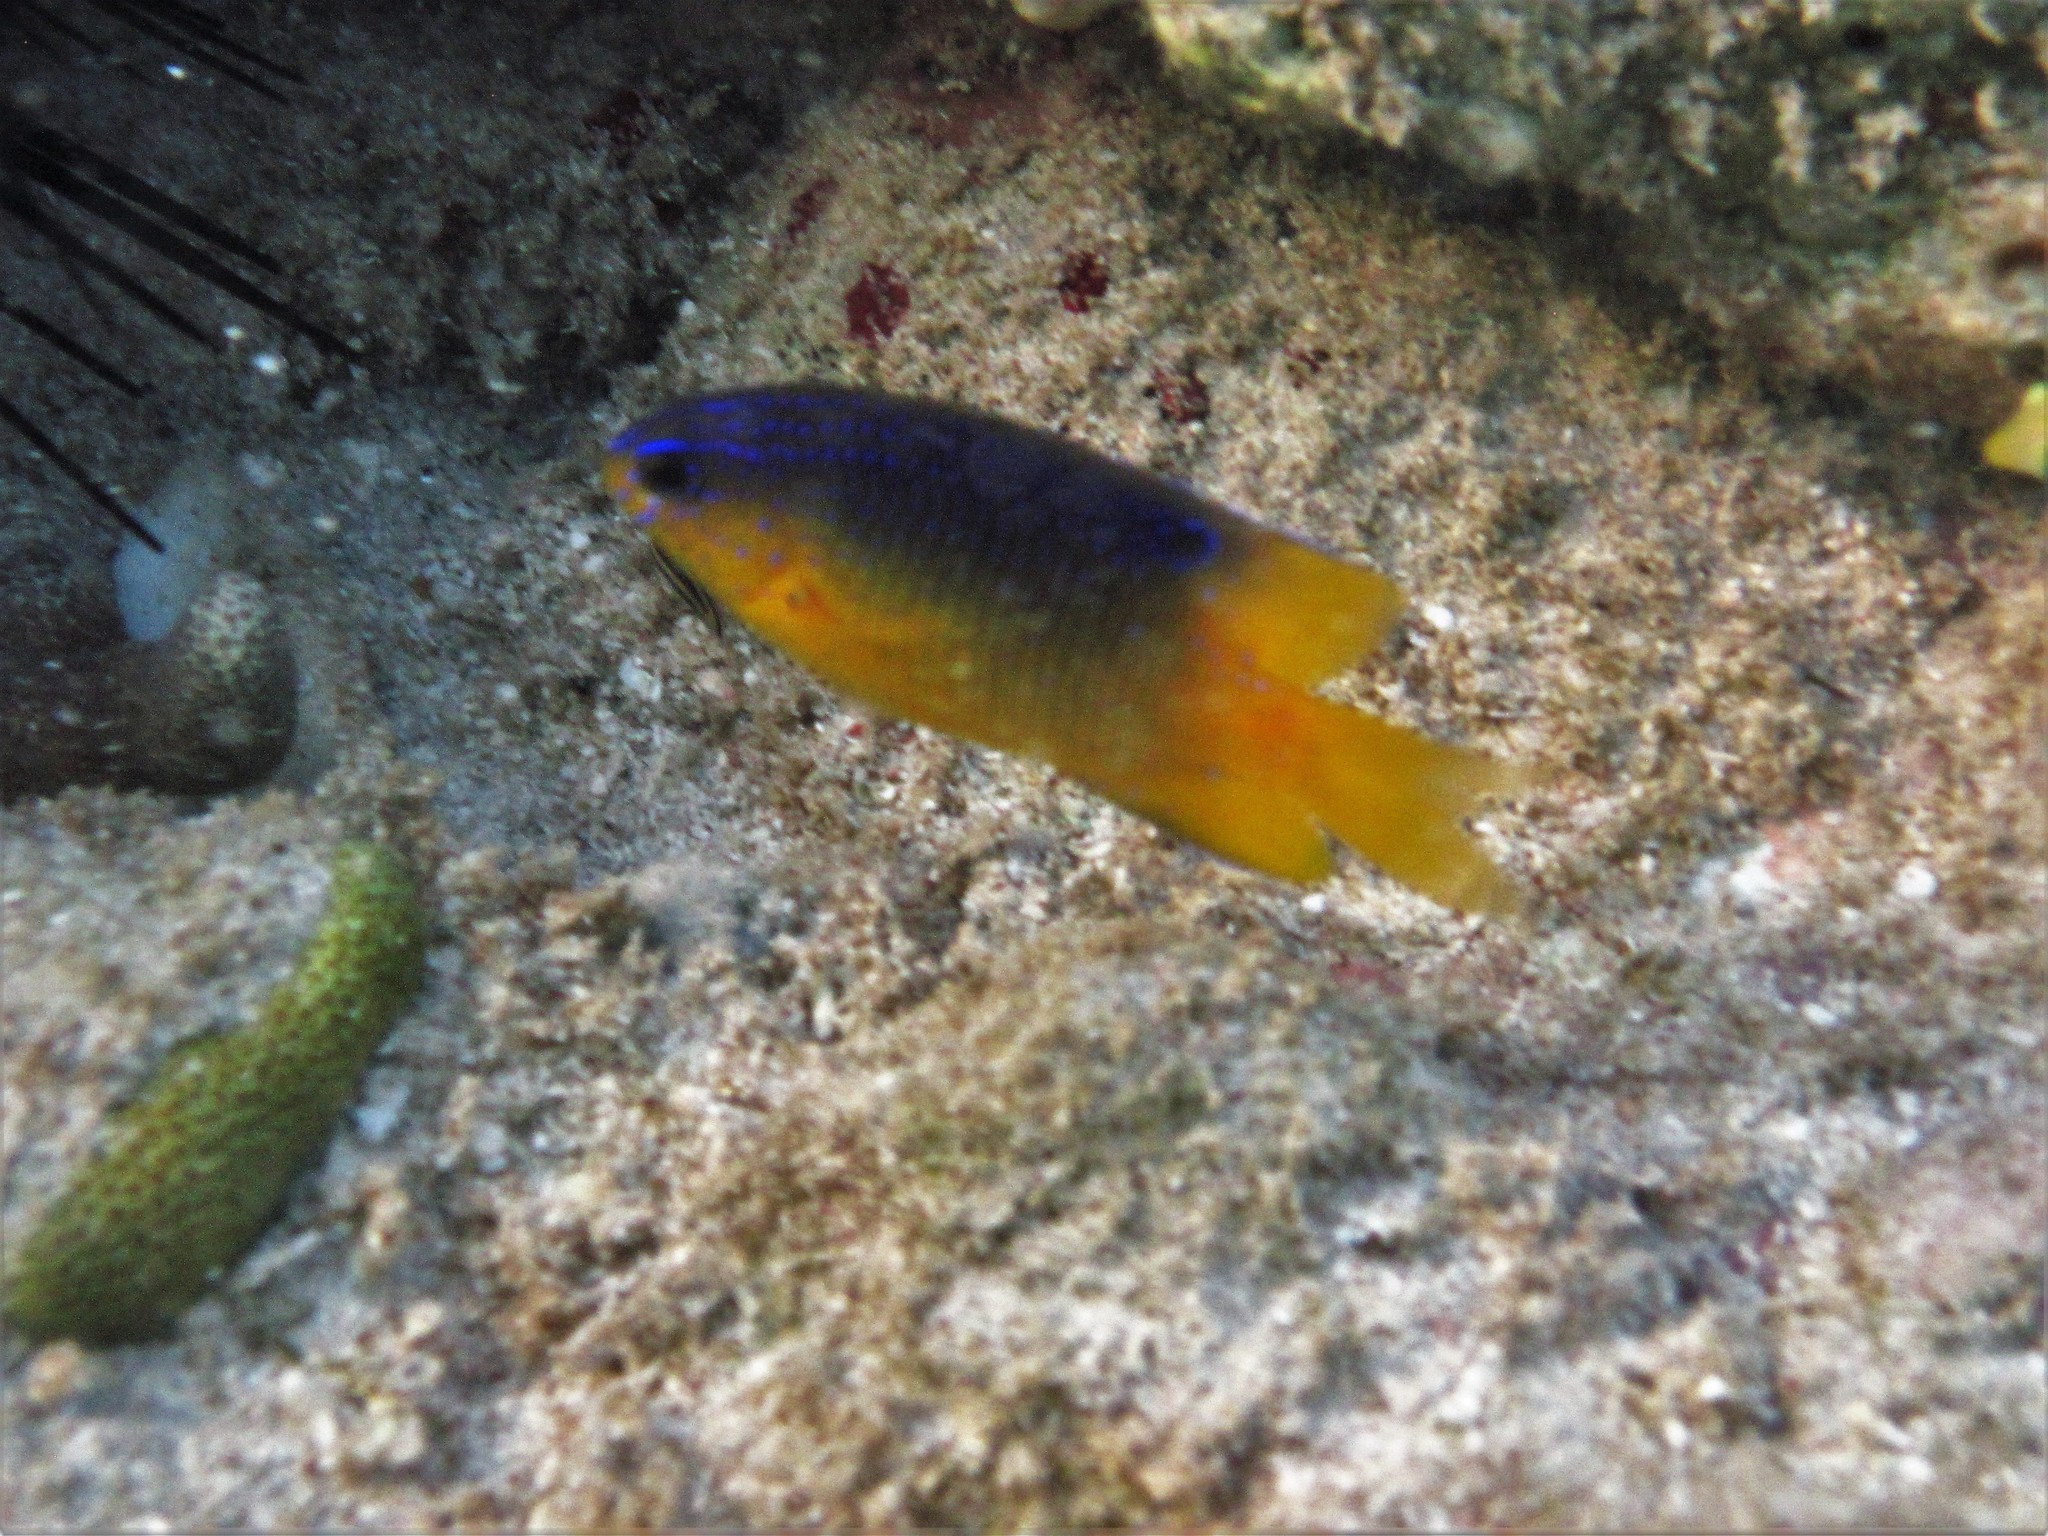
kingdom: Animalia
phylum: Chordata
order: Perciformes
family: Pomacentridae
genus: Stegastes
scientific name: Stegastes leucostictus
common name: Beaugregory
